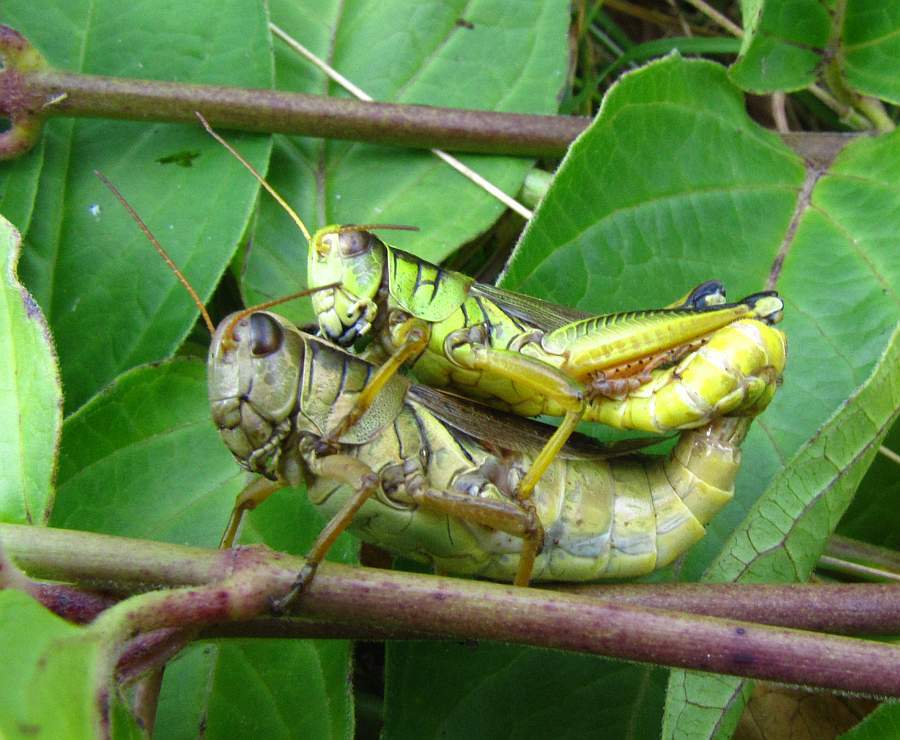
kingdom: Animalia
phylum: Arthropoda
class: Insecta
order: Orthoptera
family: Acrididae
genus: Melanoplus
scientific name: Melanoplus bivittatus
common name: Two-striped grasshopper
